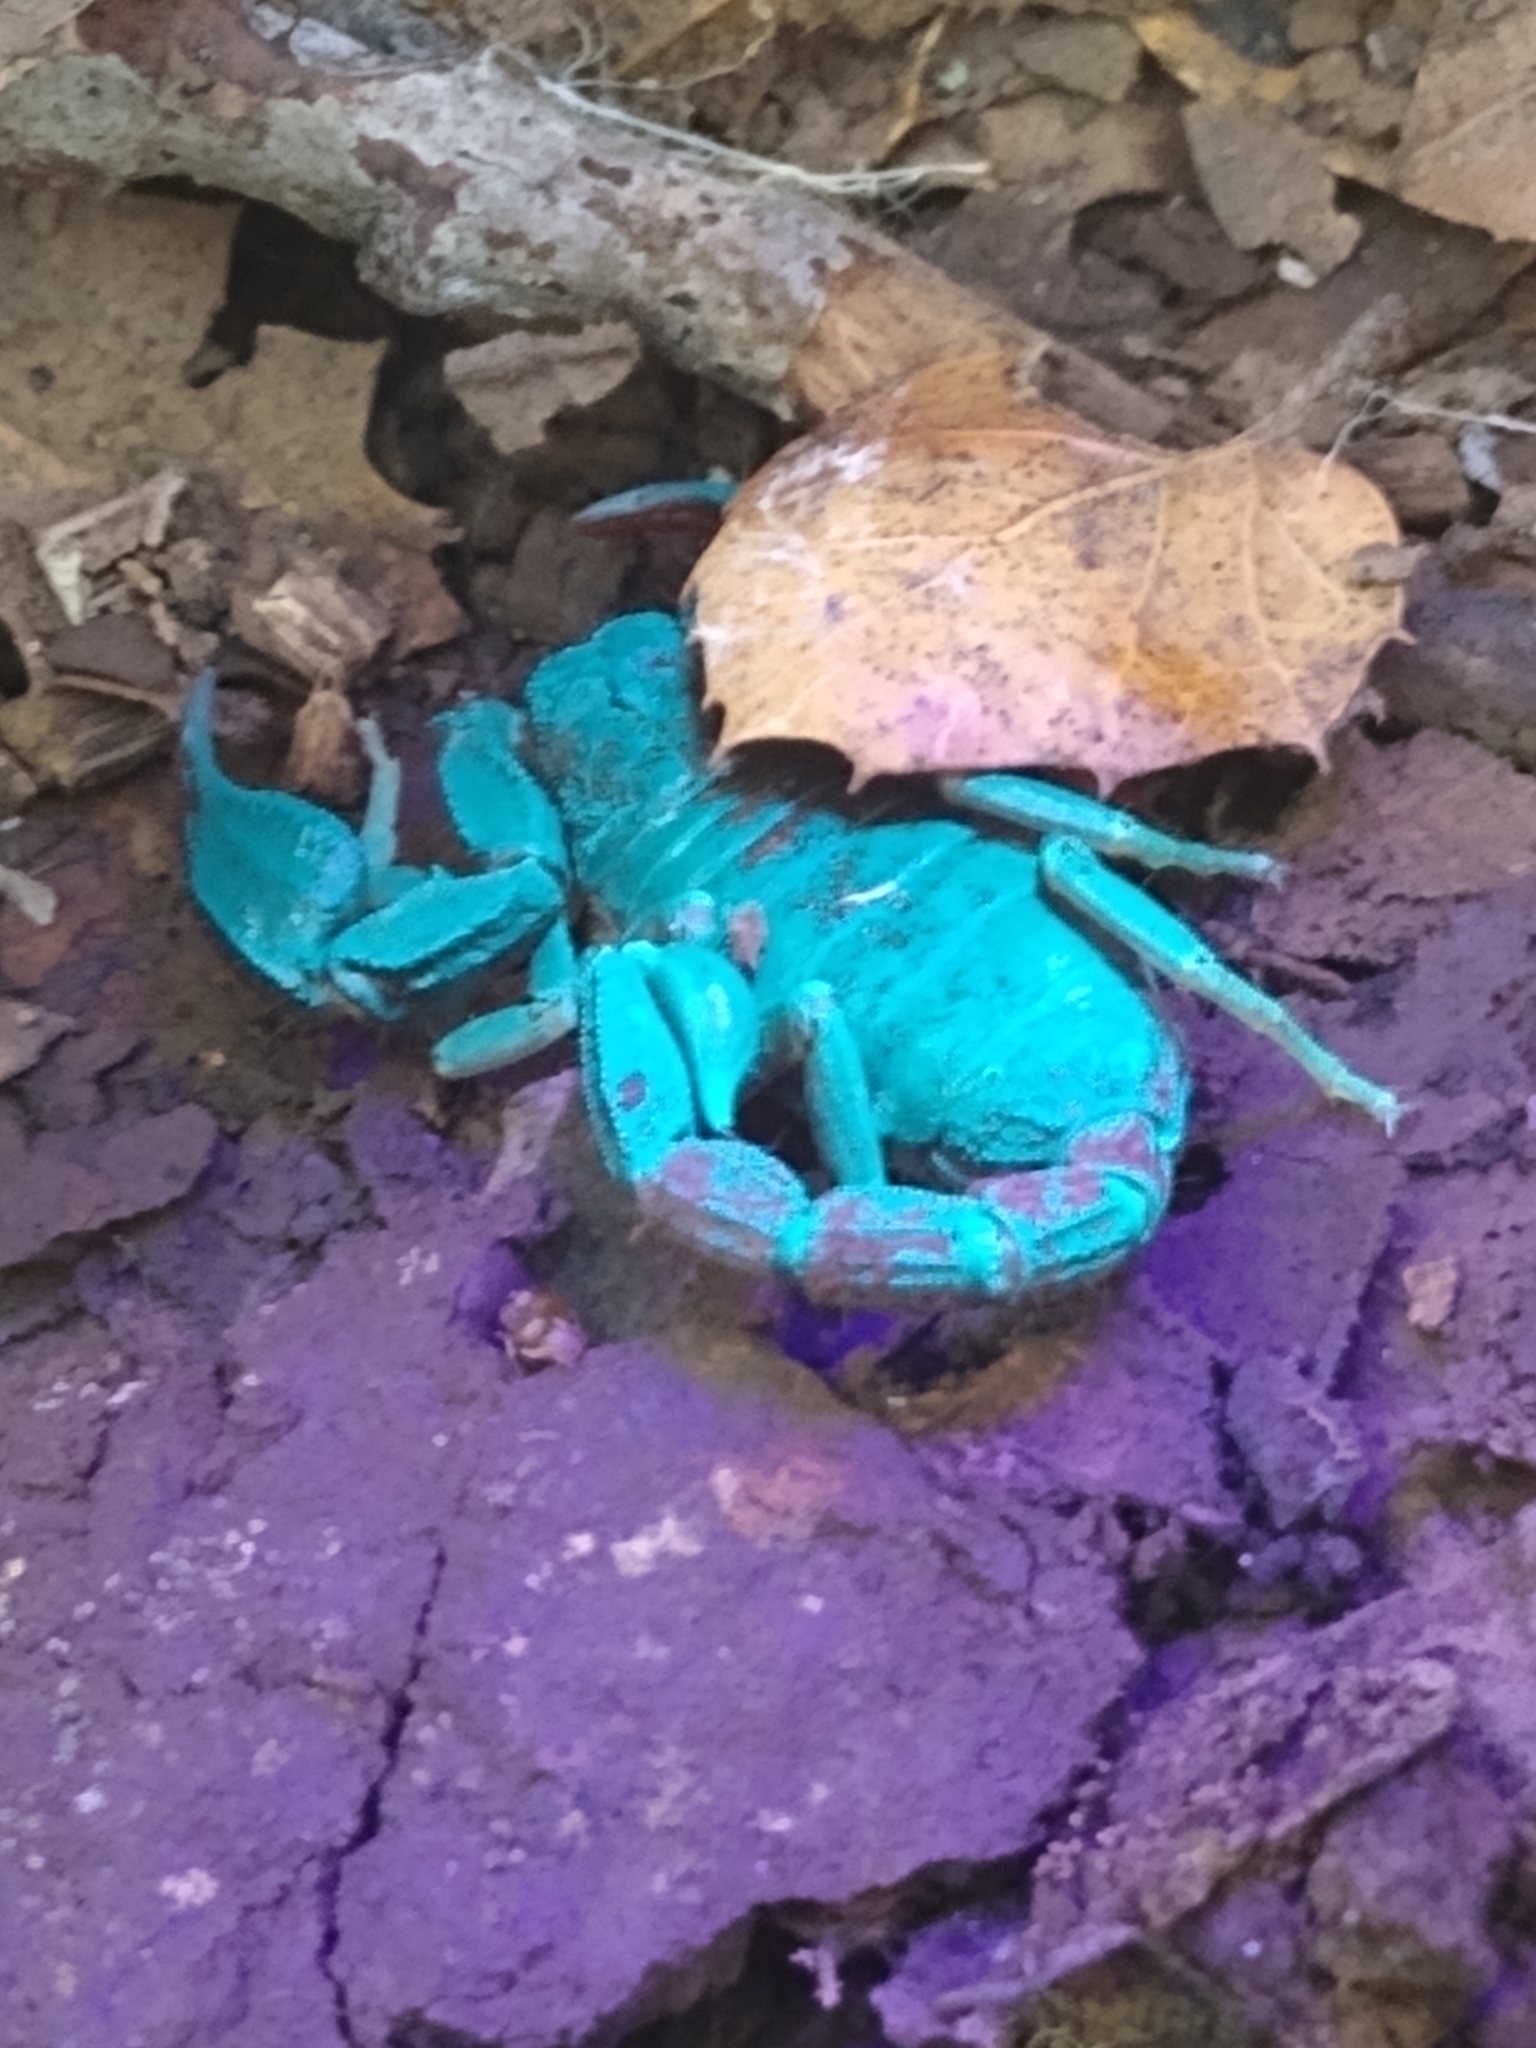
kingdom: Animalia
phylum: Arthropoda
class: Arachnida
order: Scorpiones
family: Chactidae
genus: Uroctonus
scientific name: Uroctonus mordax
